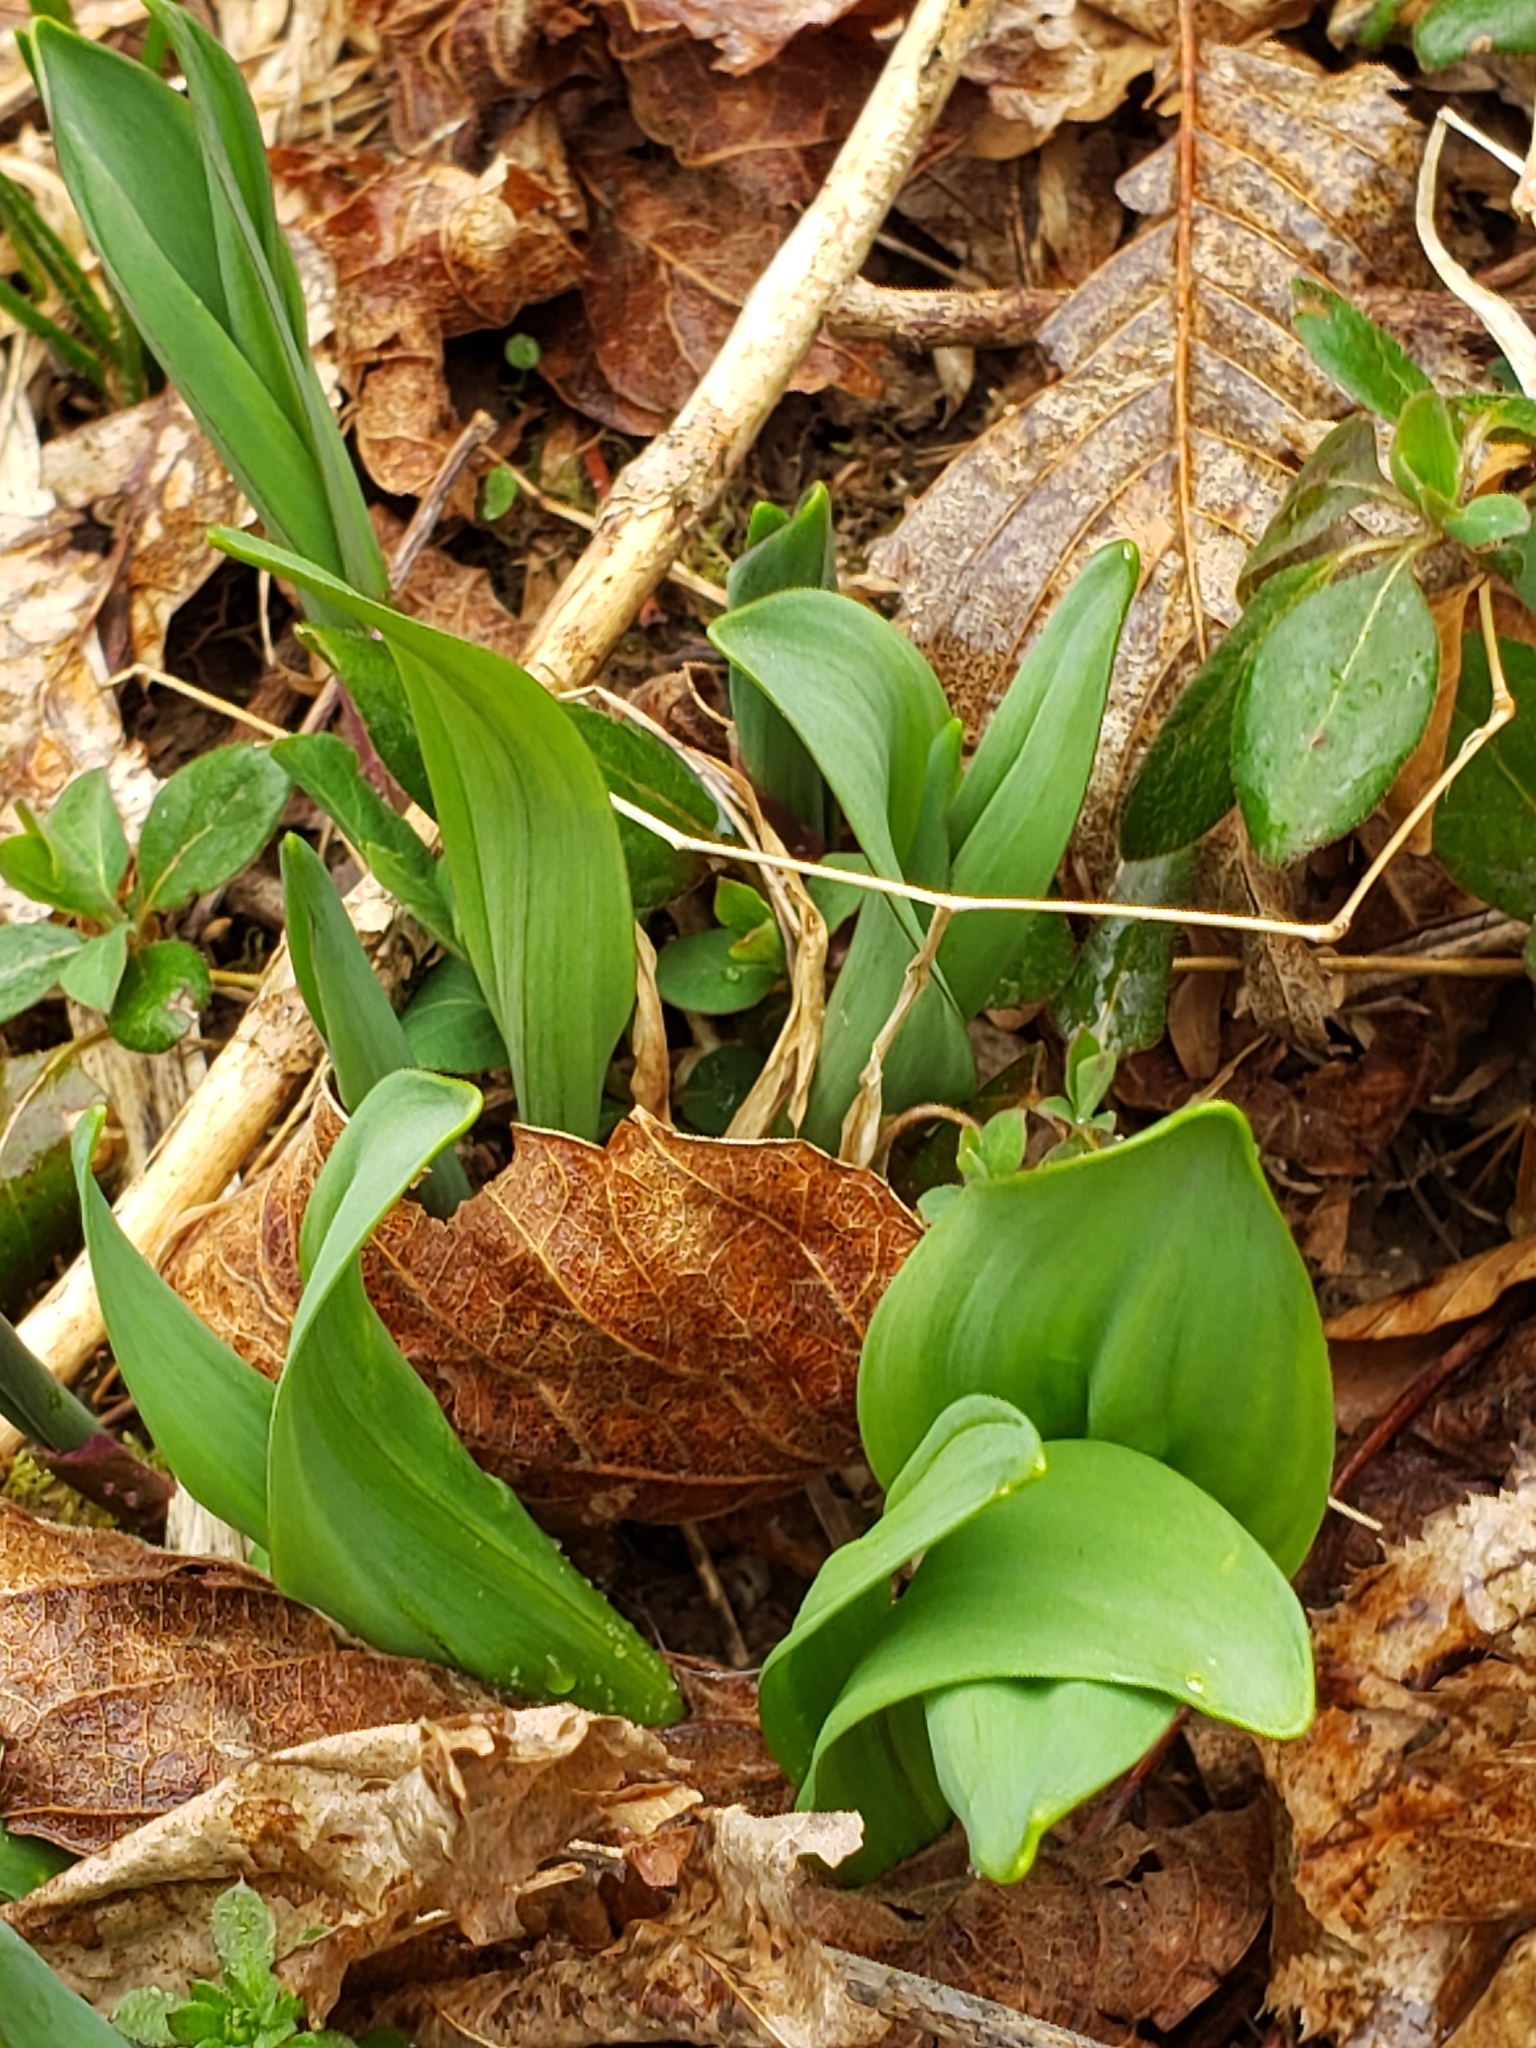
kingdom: Plantae
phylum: Tracheophyta
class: Liliopsida
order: Asparagales
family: Amaryllidaceae
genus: Allium
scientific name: Allium tricoccum
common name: Ramp
